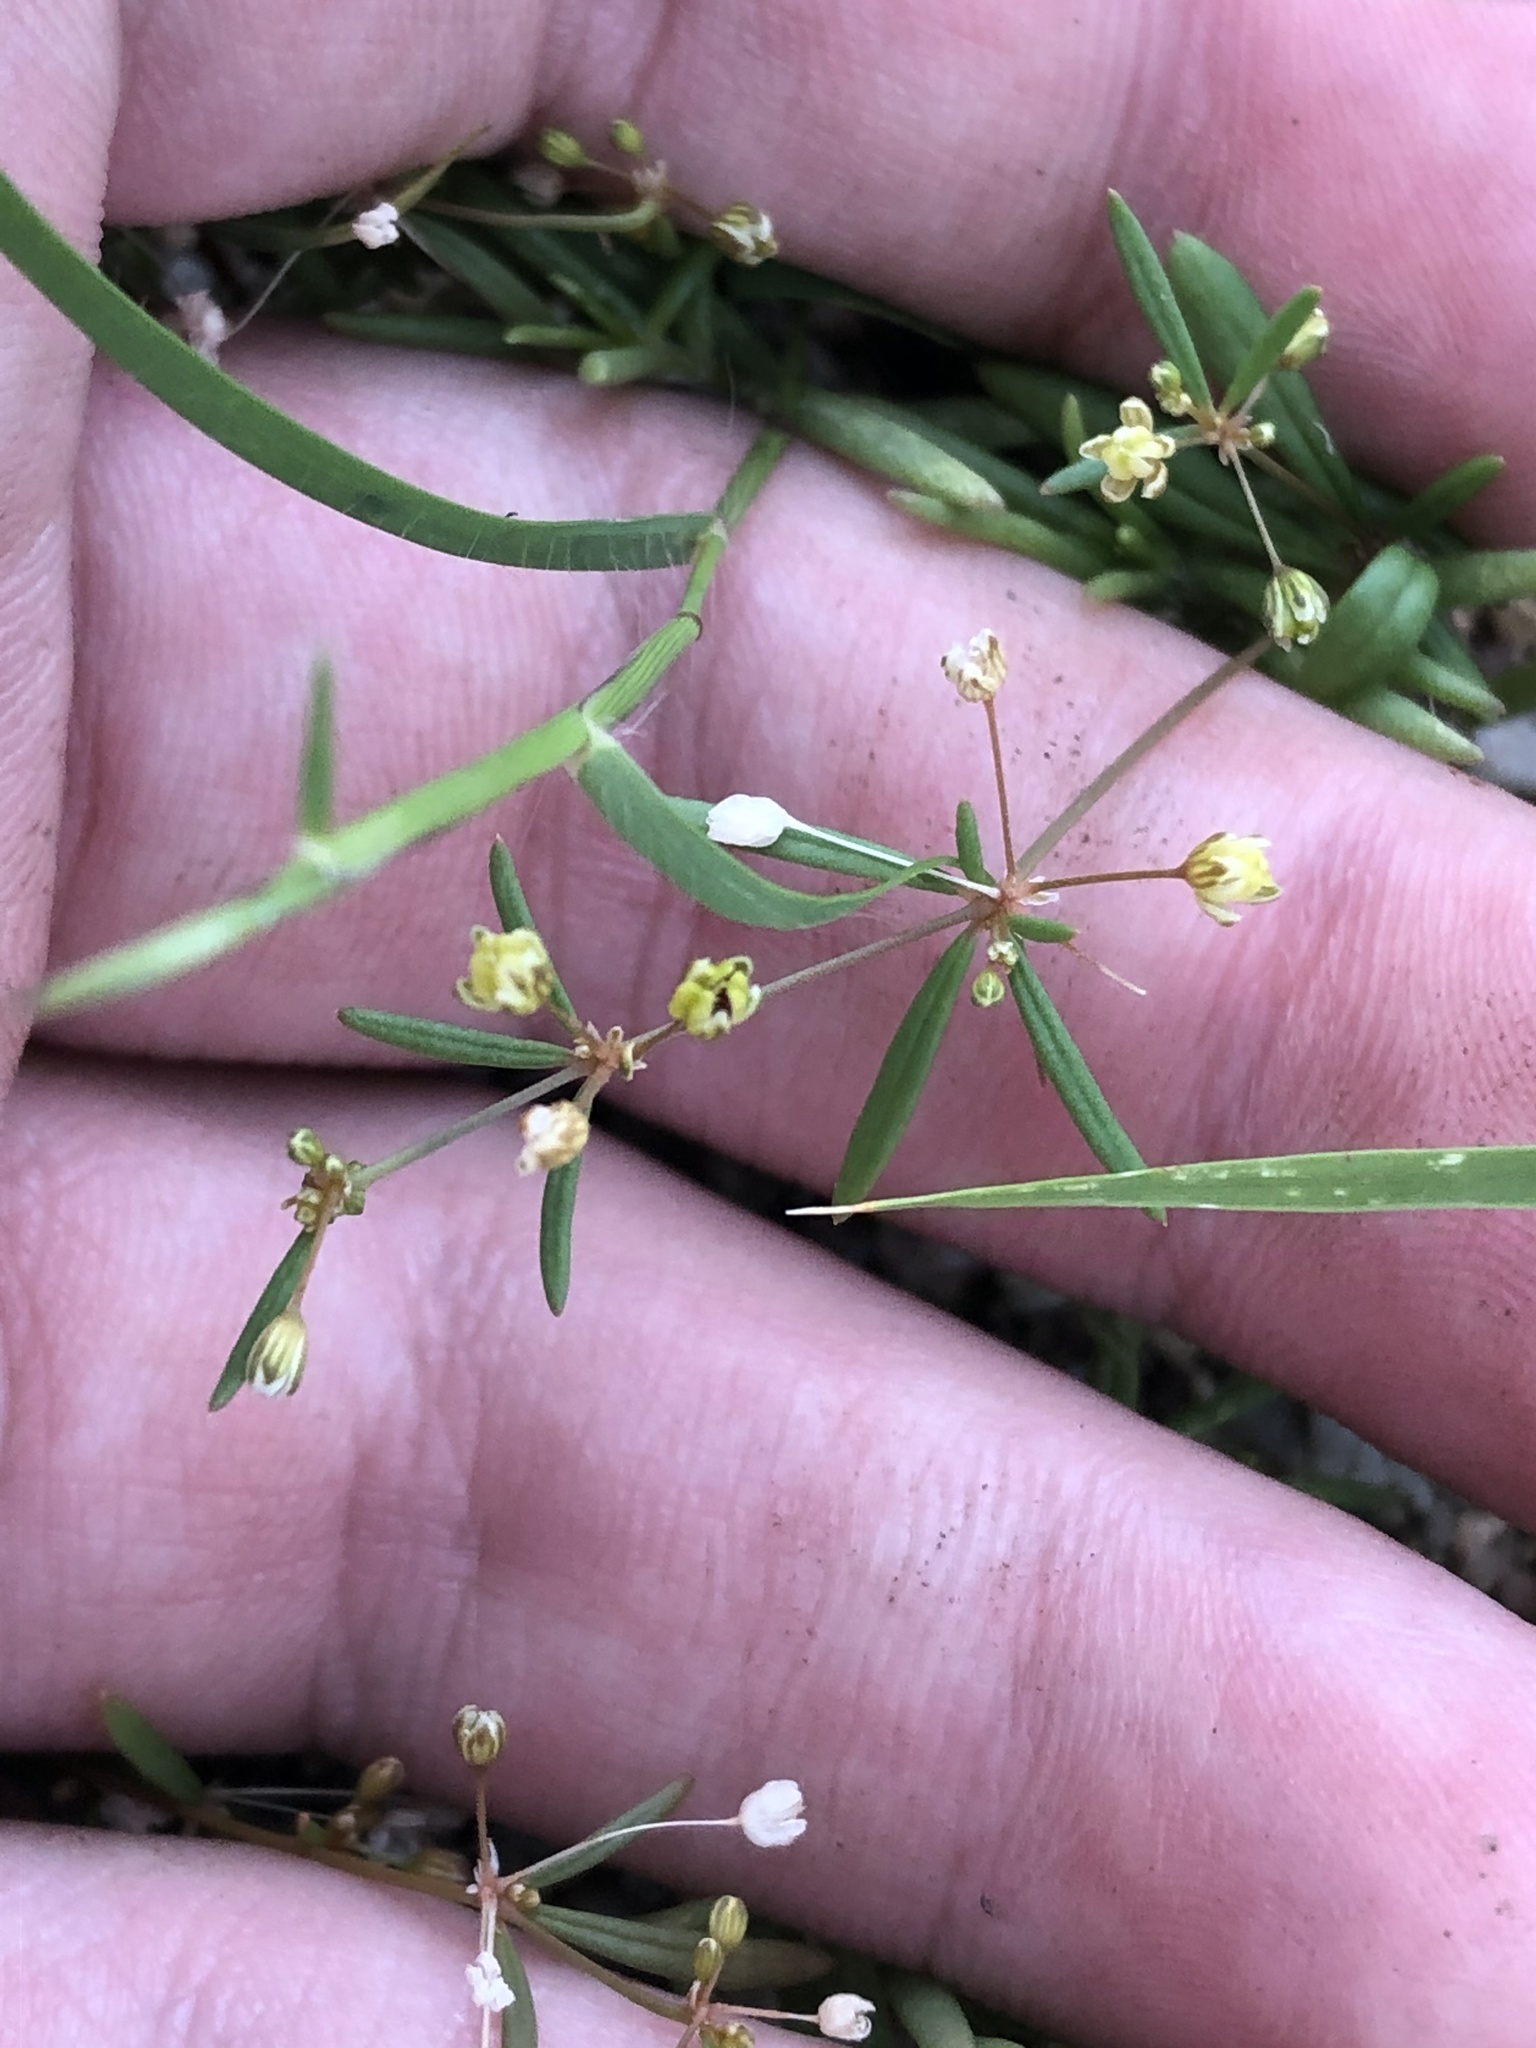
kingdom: Plantae
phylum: Tracheophyta
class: Magnoliopsida
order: Caryophyllales
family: Molluginaceae
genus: Mollugo
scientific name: Mollugo verticillata
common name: Green carpetweed
